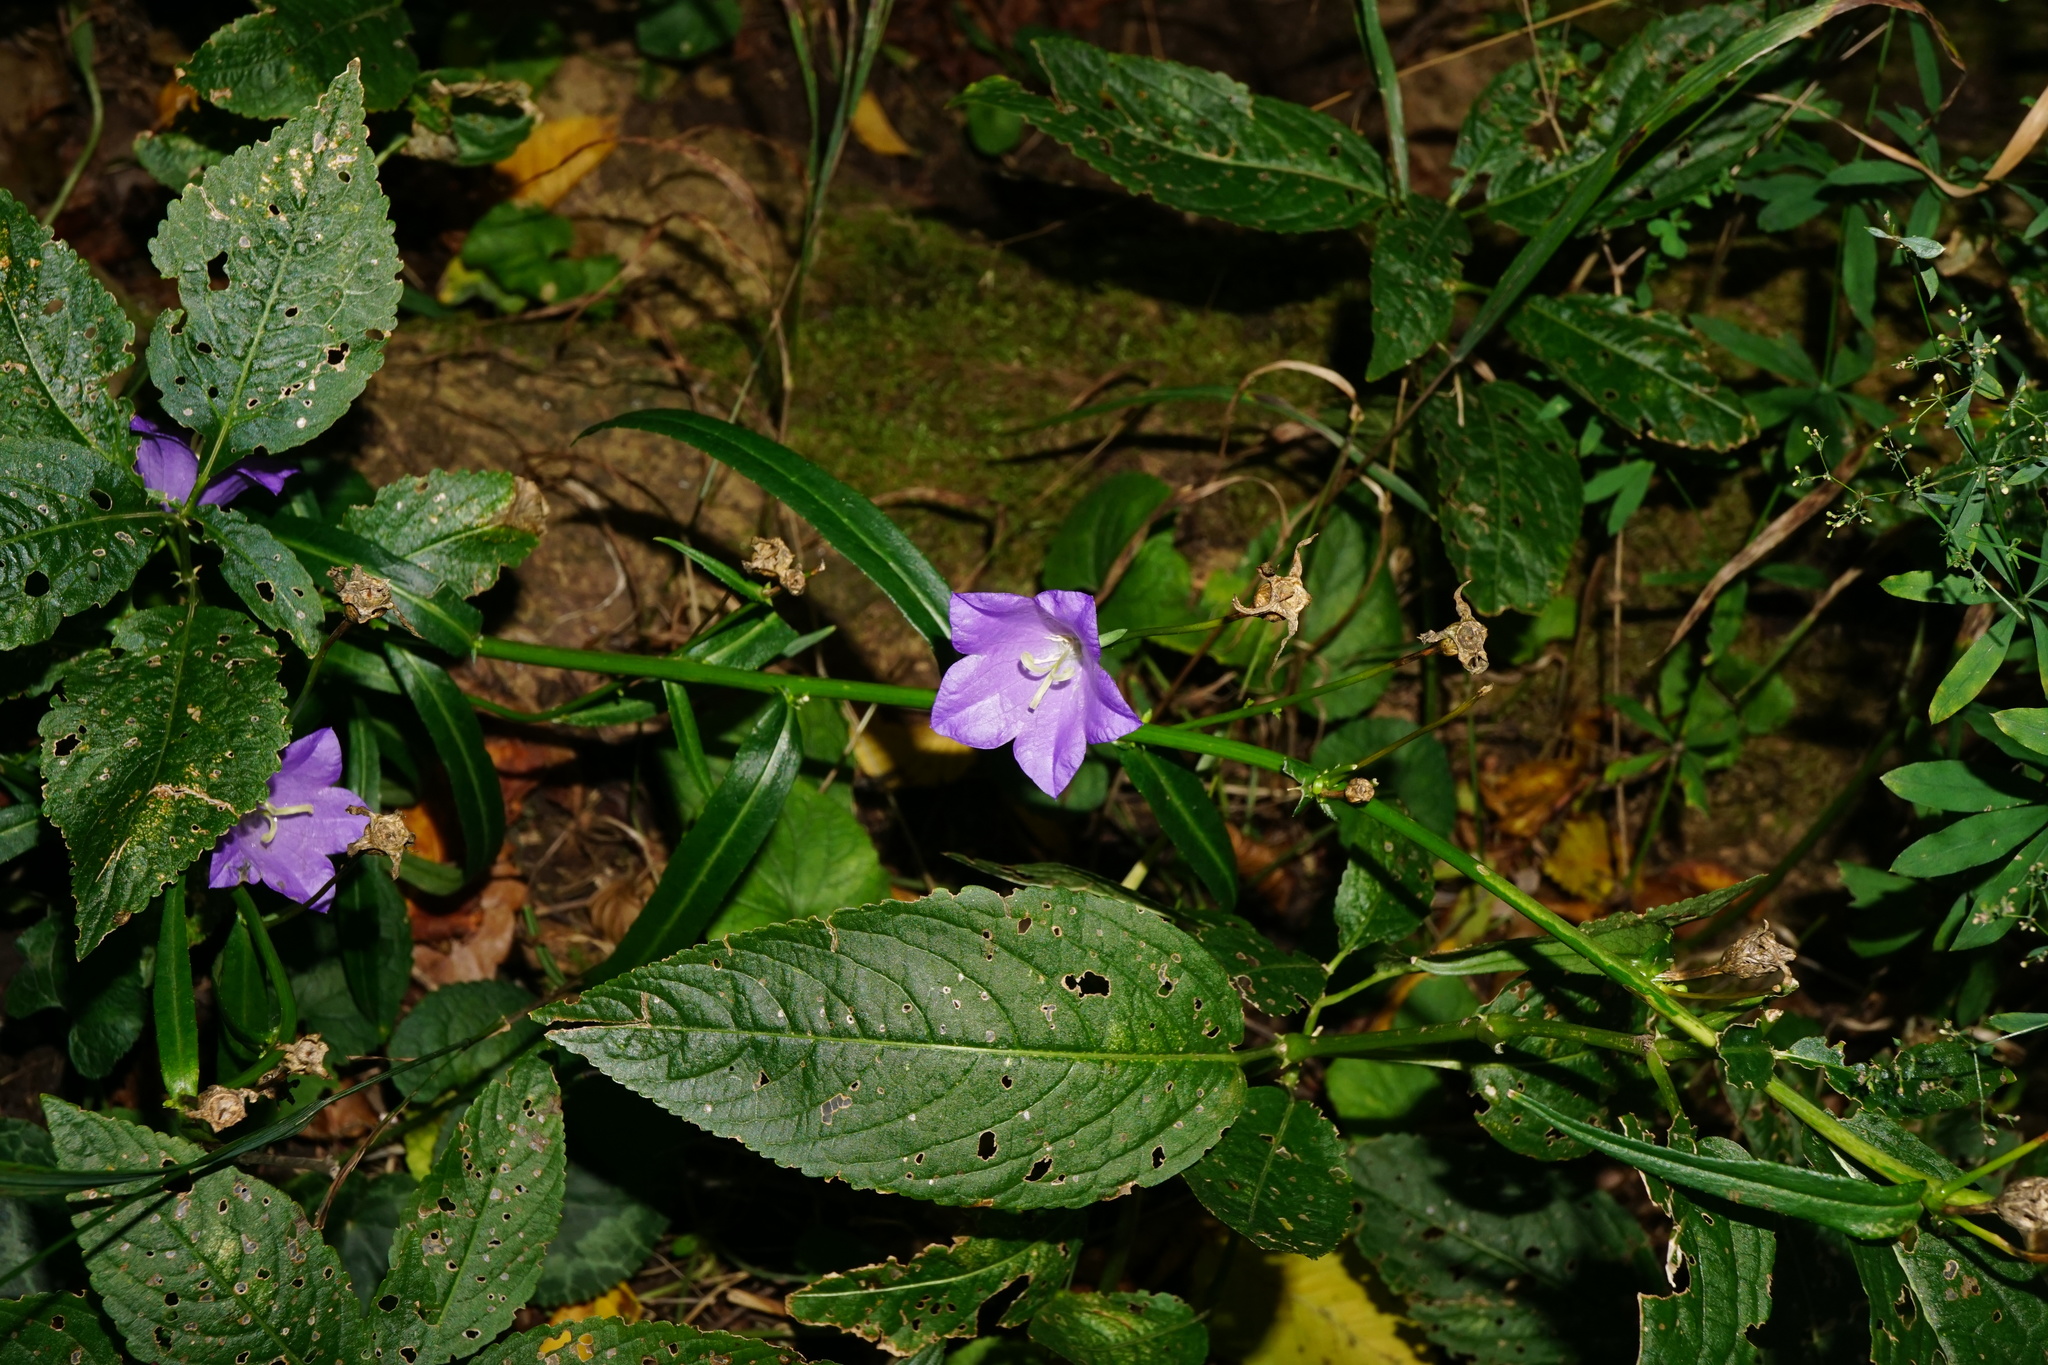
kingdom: Plantae
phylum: Tracheophyta
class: Magnoliopsida
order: Asterales
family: Campanulaceae
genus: Campanula
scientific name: Campanula persicifolia
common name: Peach-leaved bellflower
